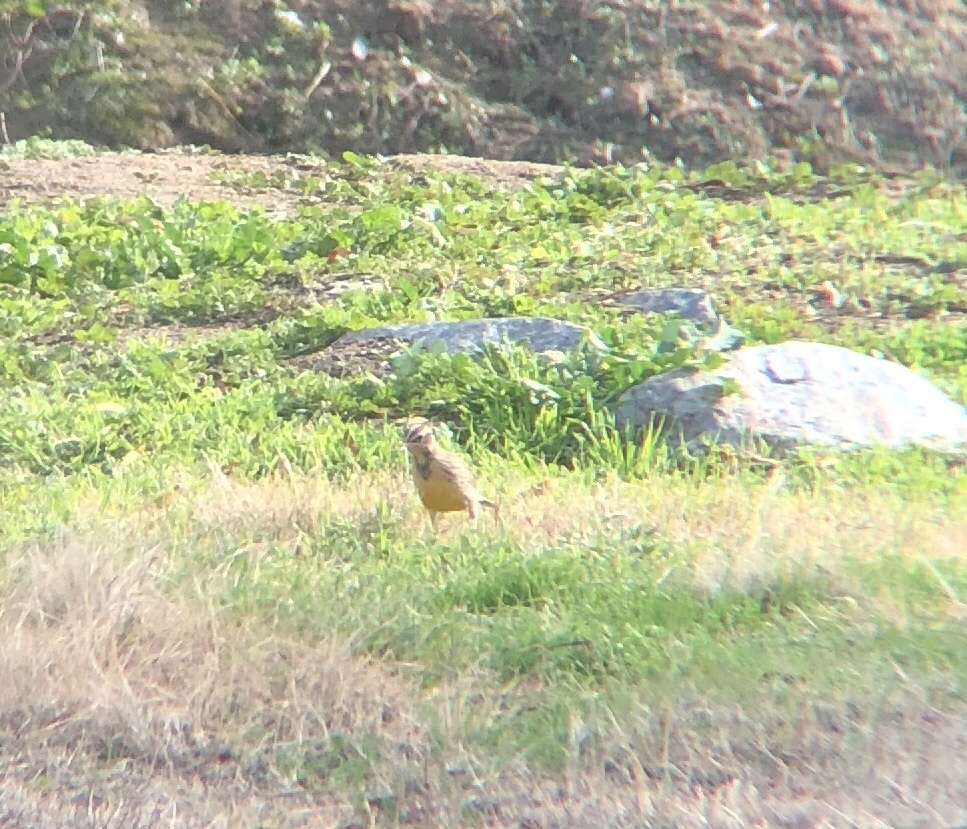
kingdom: Animalia
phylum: Chordata
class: Aves
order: Passeriformes
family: Icteridae
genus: Sturnella
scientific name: Sturnella neglecta
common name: Western meadowlark
